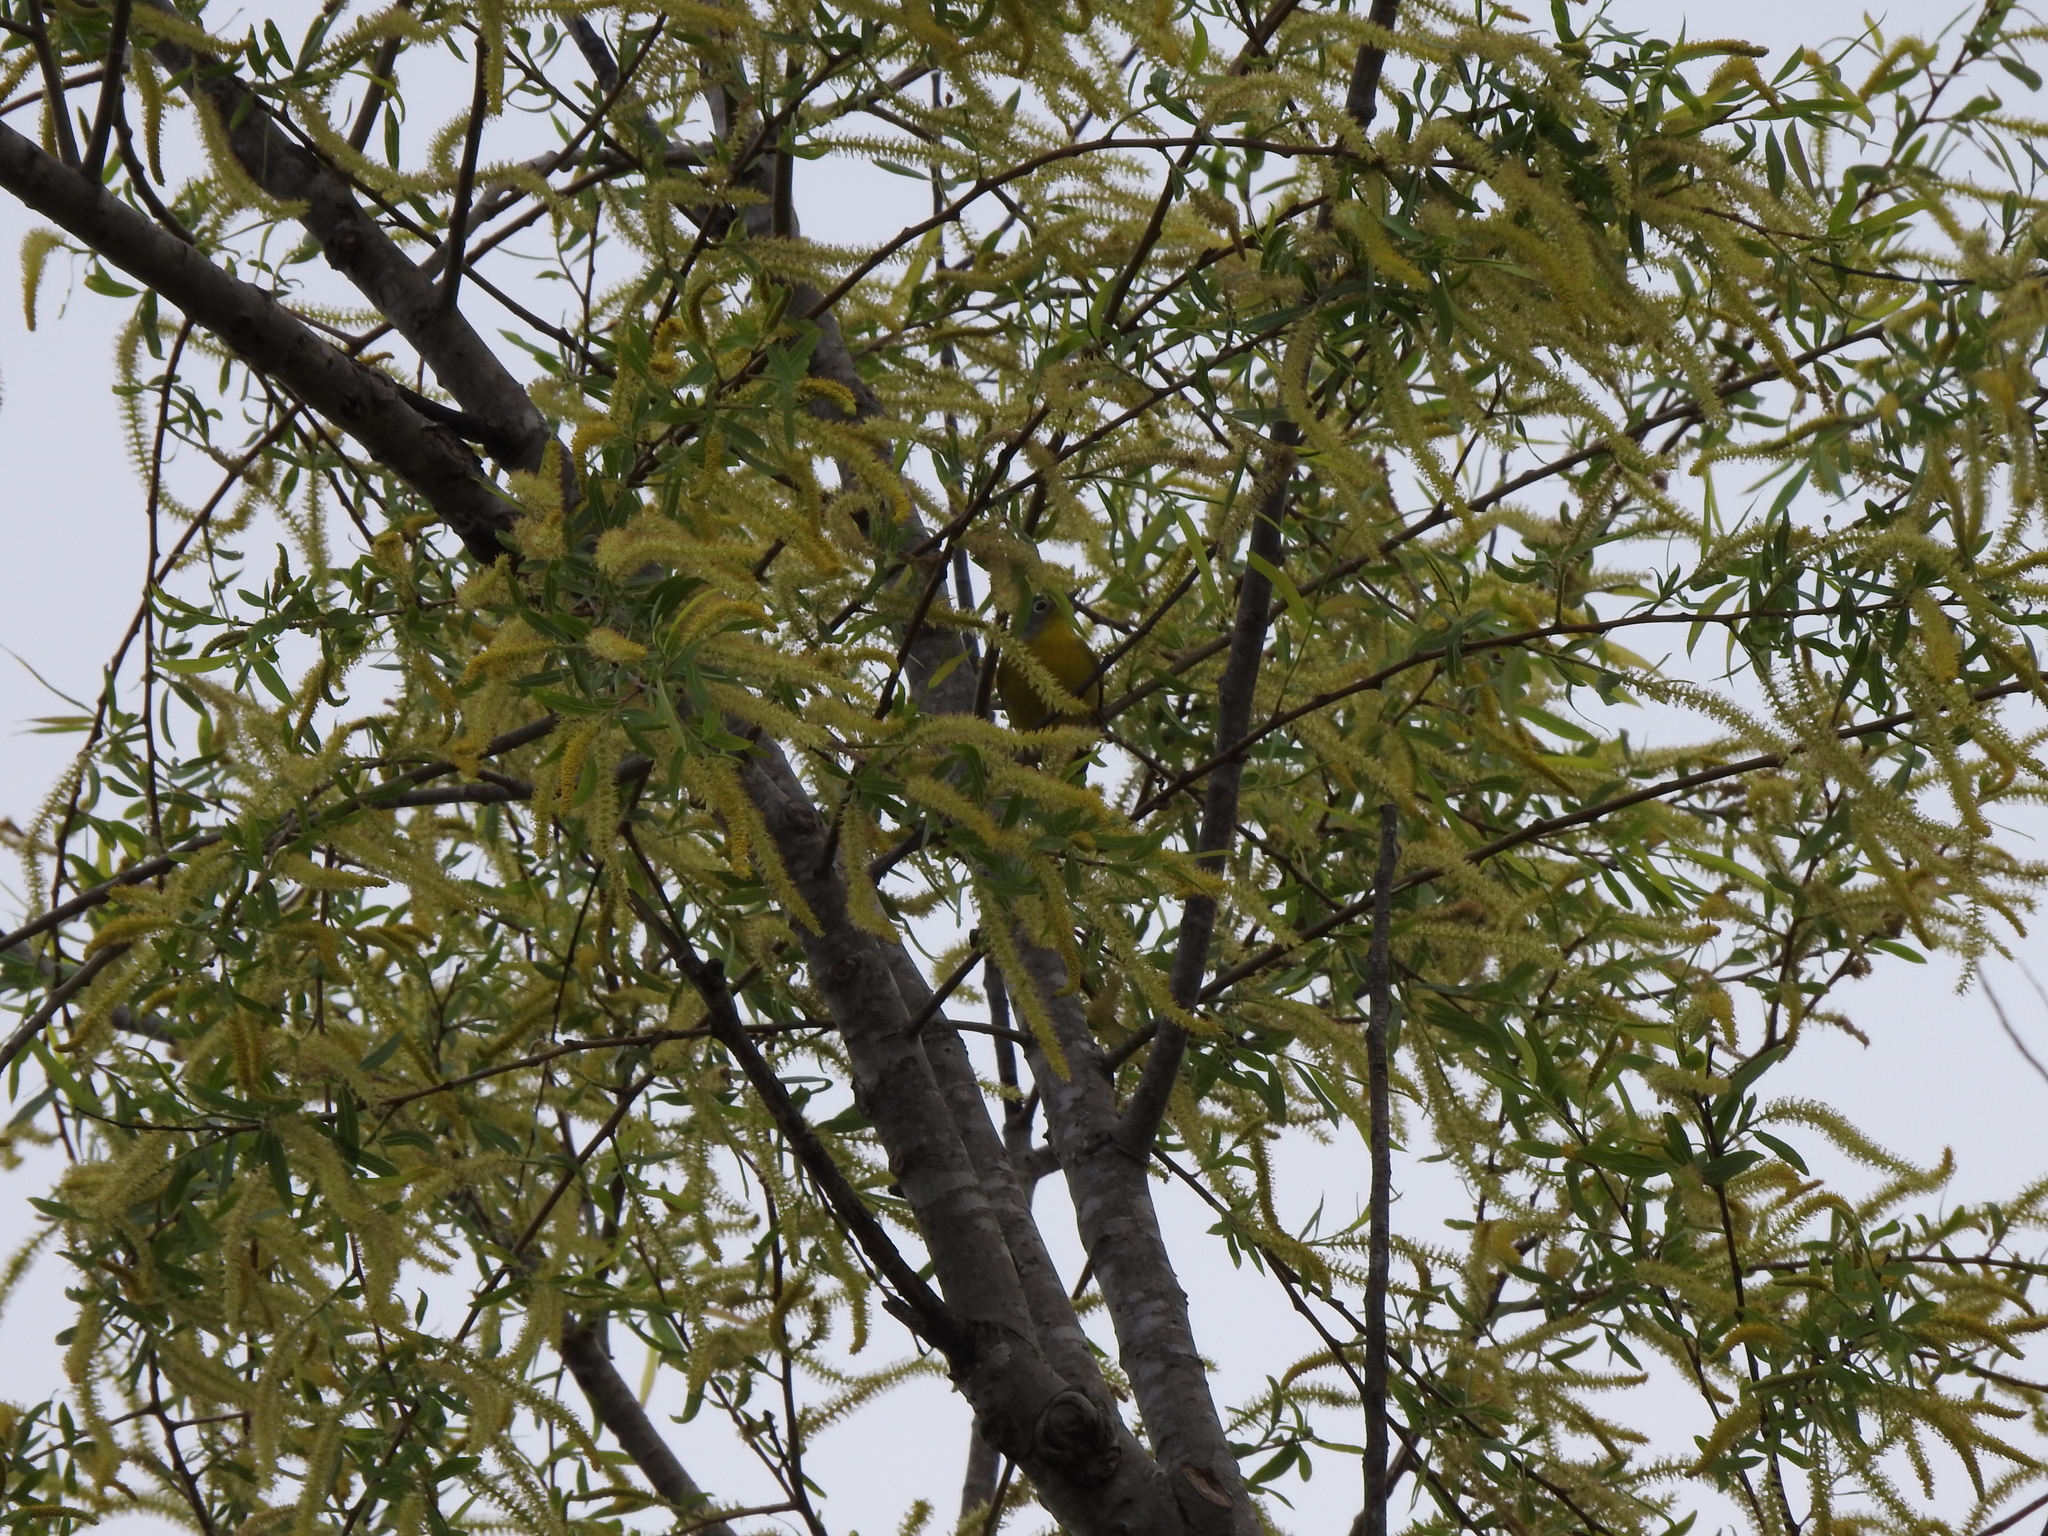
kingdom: Animalia
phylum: Chordata
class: Aves
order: Passeriformes
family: Parulidae
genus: Leiothlypis
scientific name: Leiothlypis ruficapilla
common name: Nashville warbler
